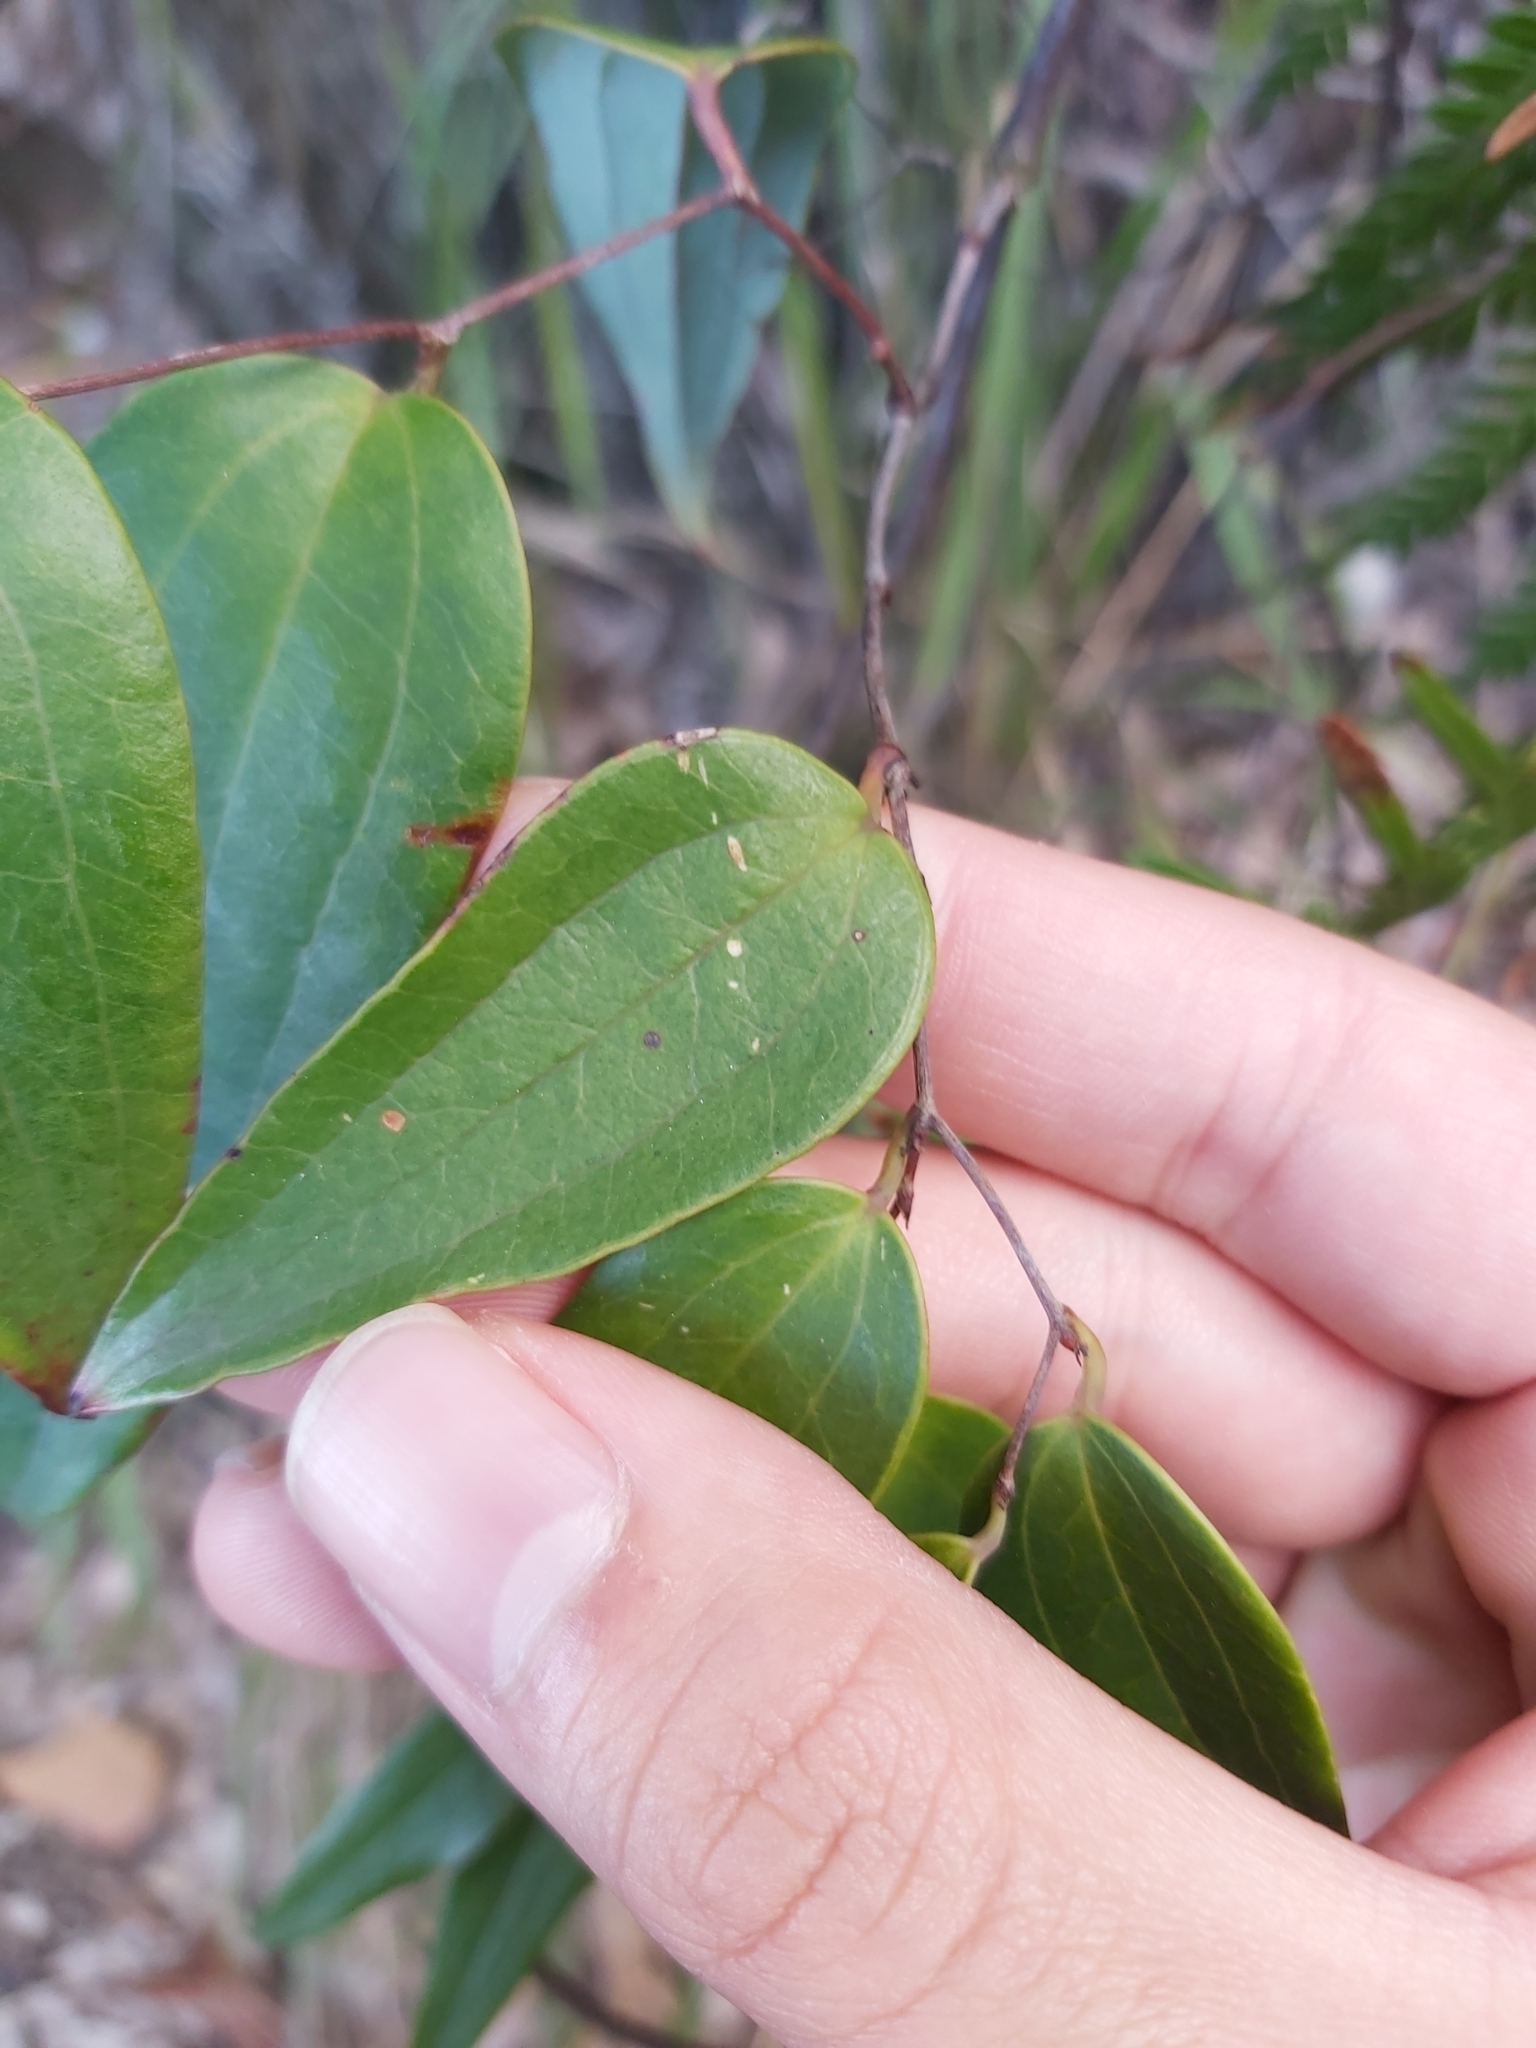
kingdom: Plantae
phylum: Tracheophyta
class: Liliopsida
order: Liliales
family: Smilacaceae
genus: Smilax
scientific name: Smilax glyciphylla
